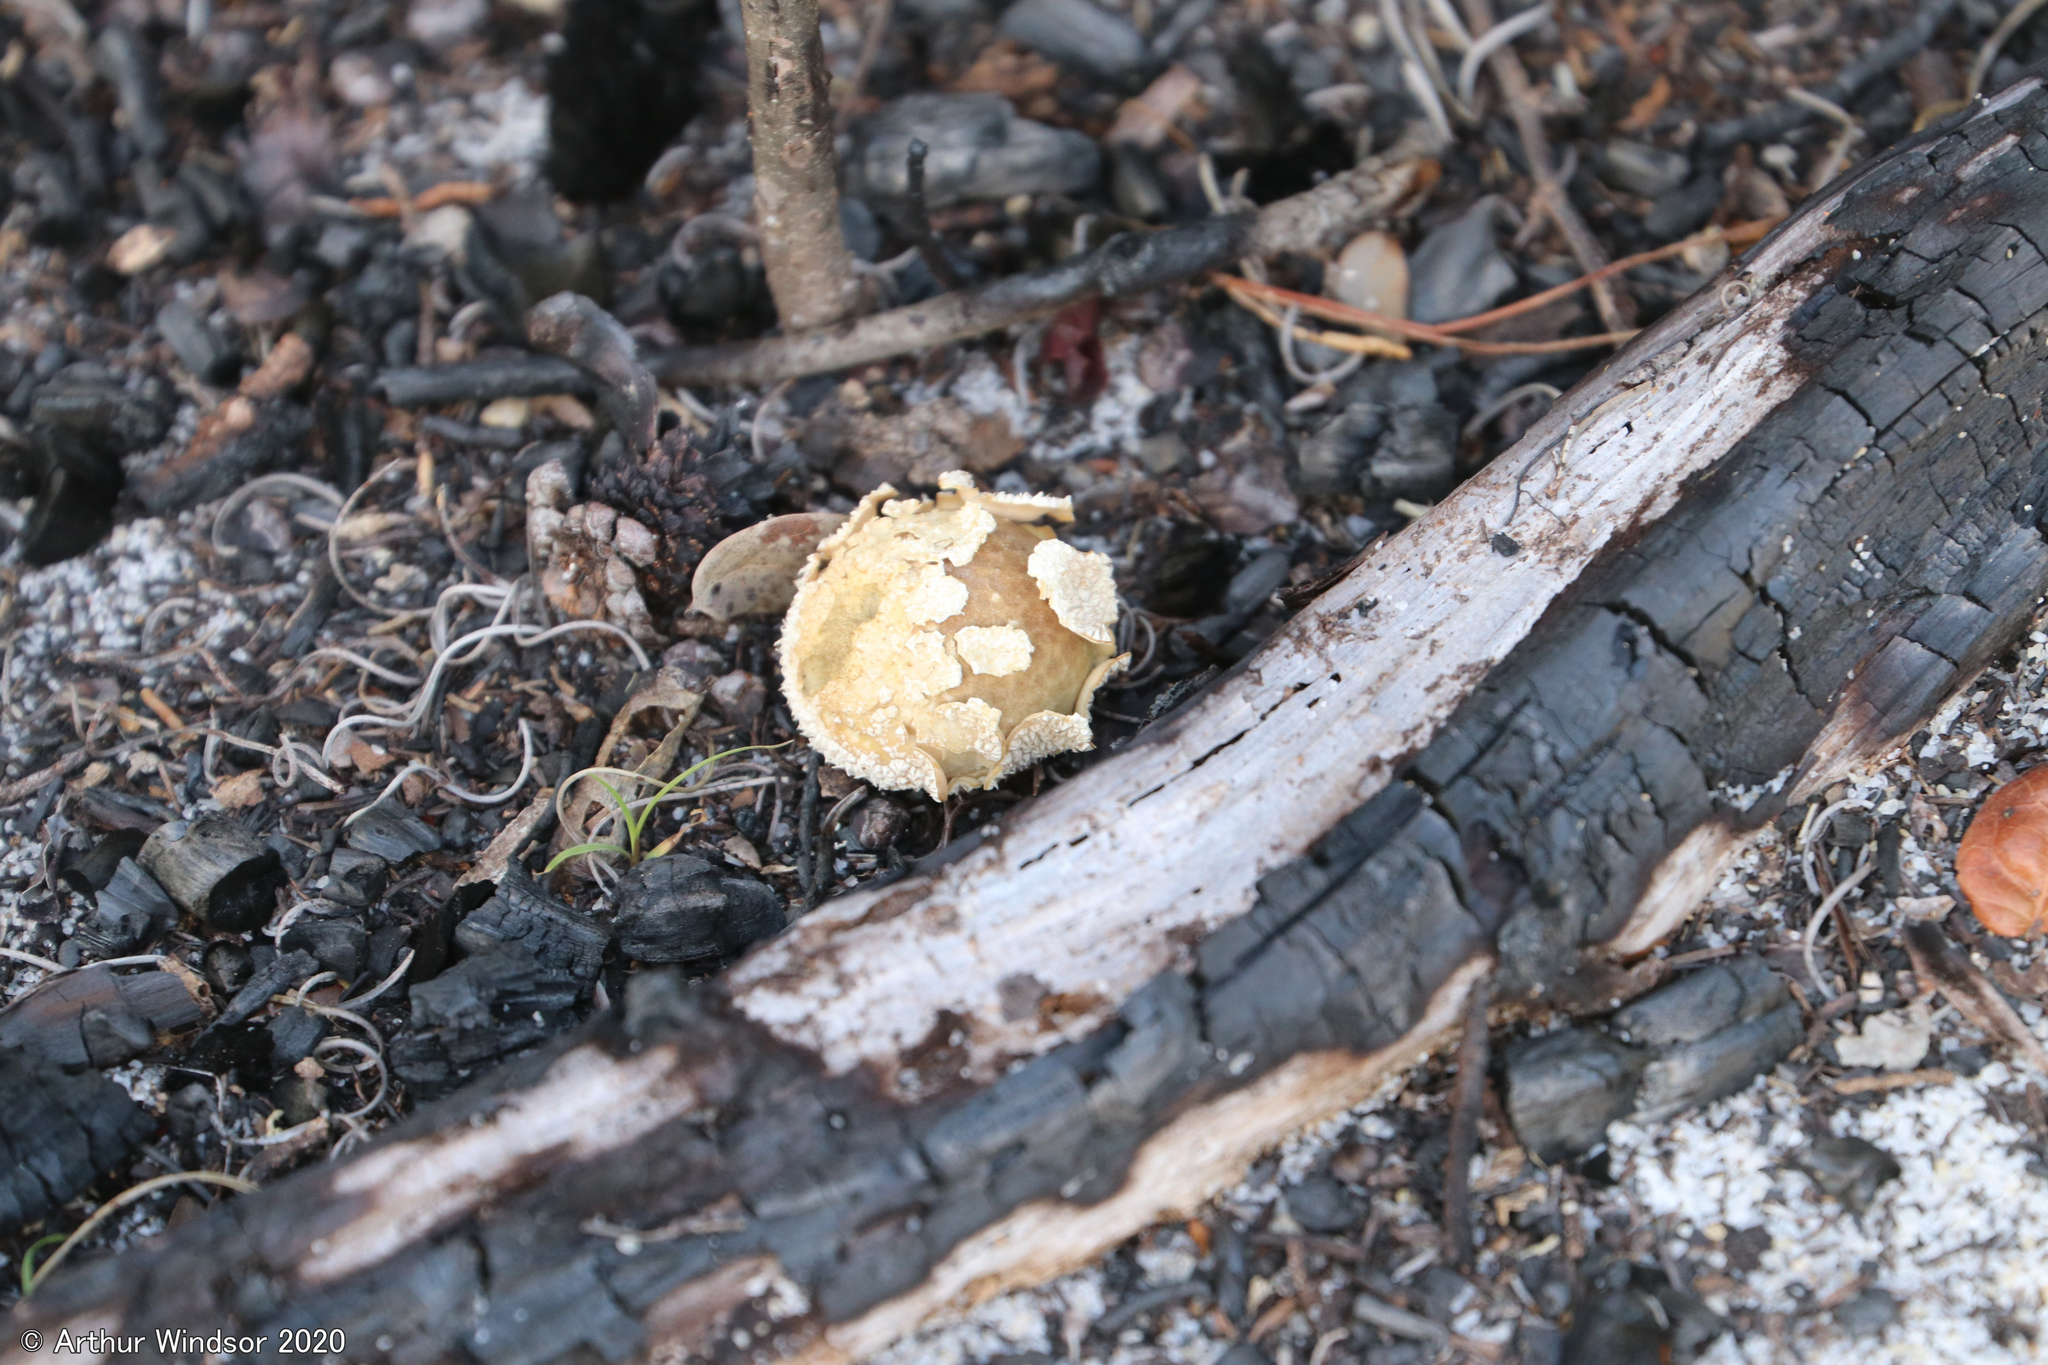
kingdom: Fungi
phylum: Basidiomycota
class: Agaricomycetes
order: Agaricales
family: Agaricaceae
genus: Lycoperdon
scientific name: Lycoperdon marginatum
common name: Peeling puffball
